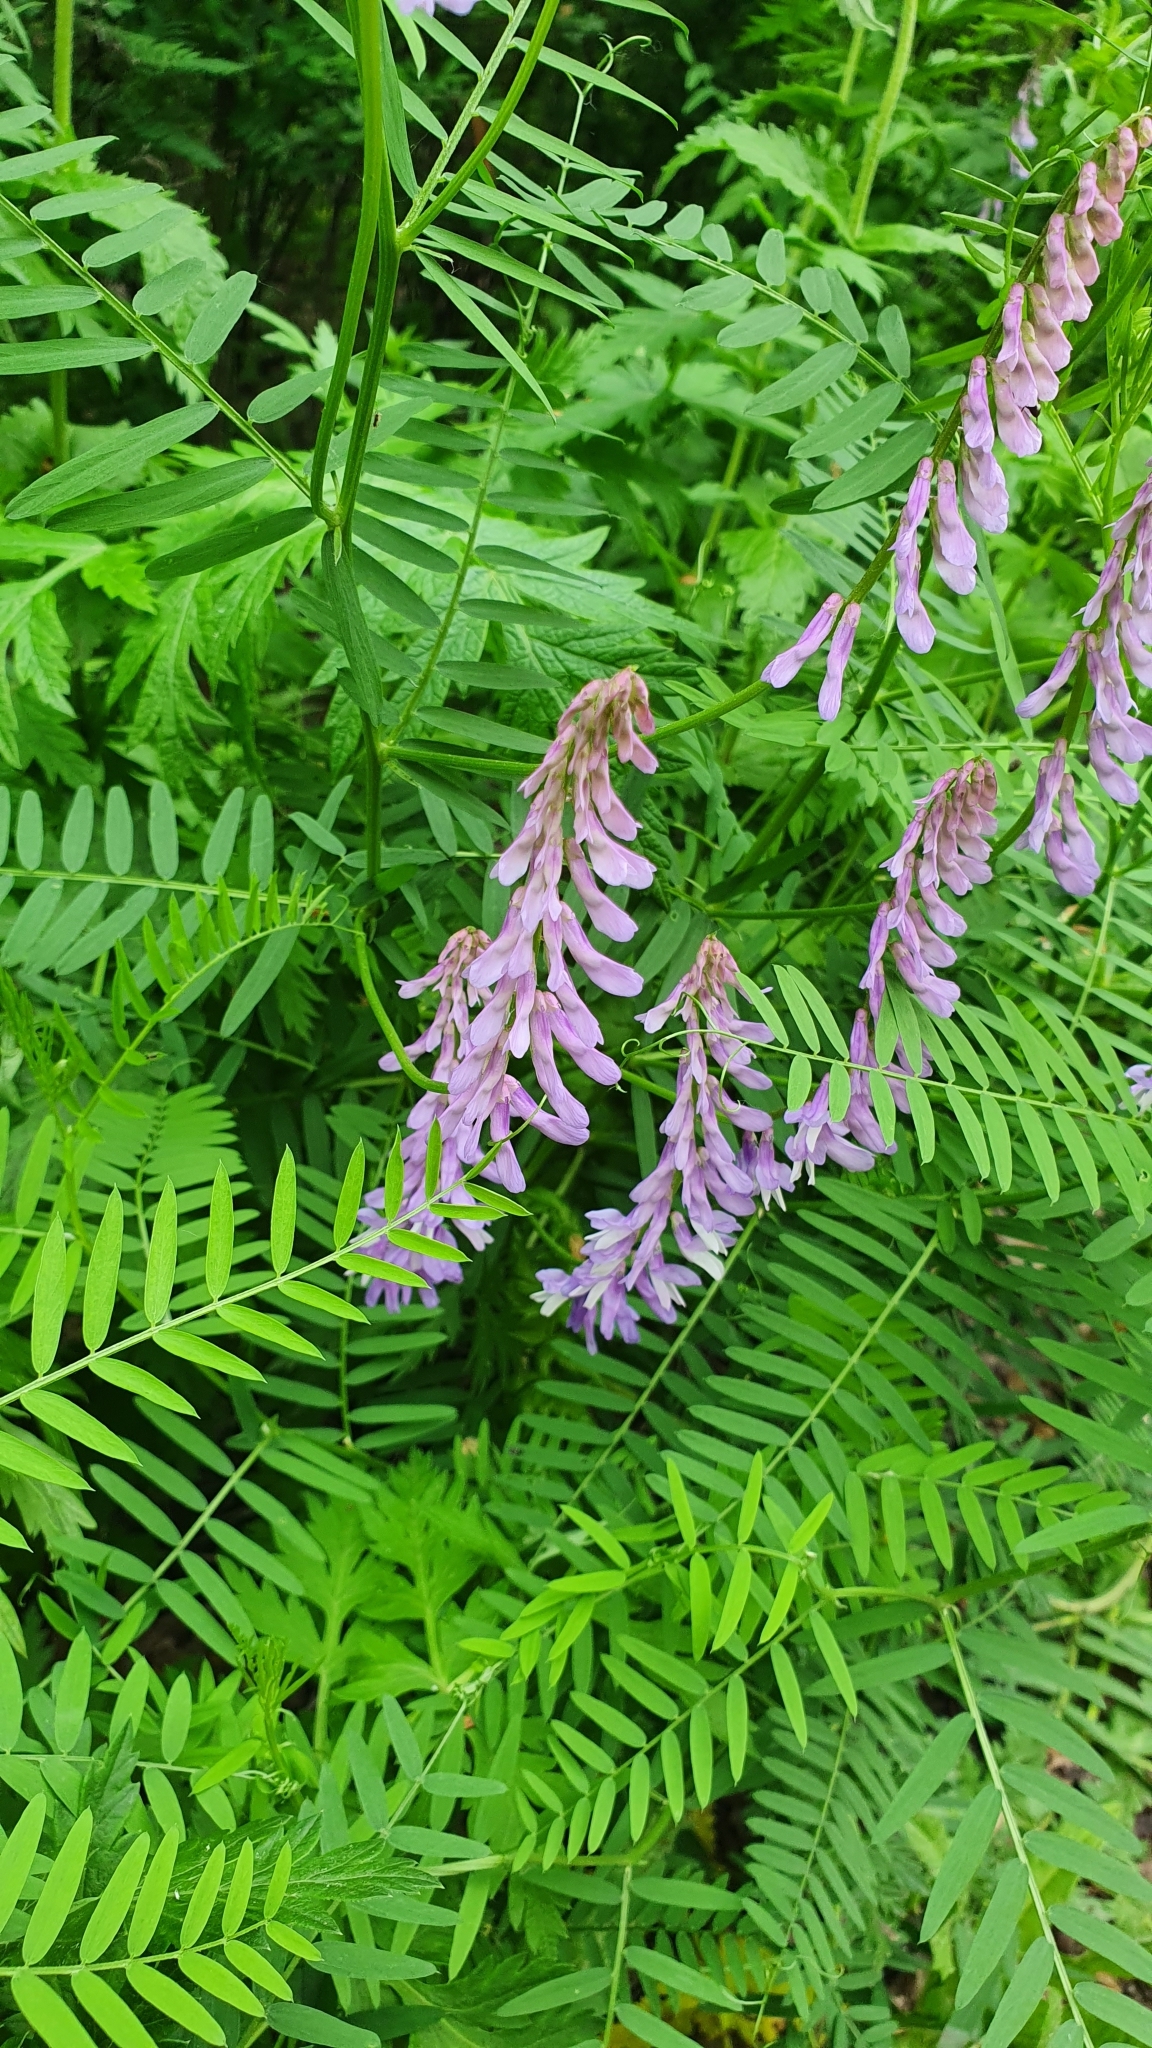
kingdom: Plantae
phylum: Tracheophyta
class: Magnoliopsida
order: Fabales
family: Fabaceae
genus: Vicia
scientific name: Vicia tenuifolia
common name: Fine-leaved vetch
